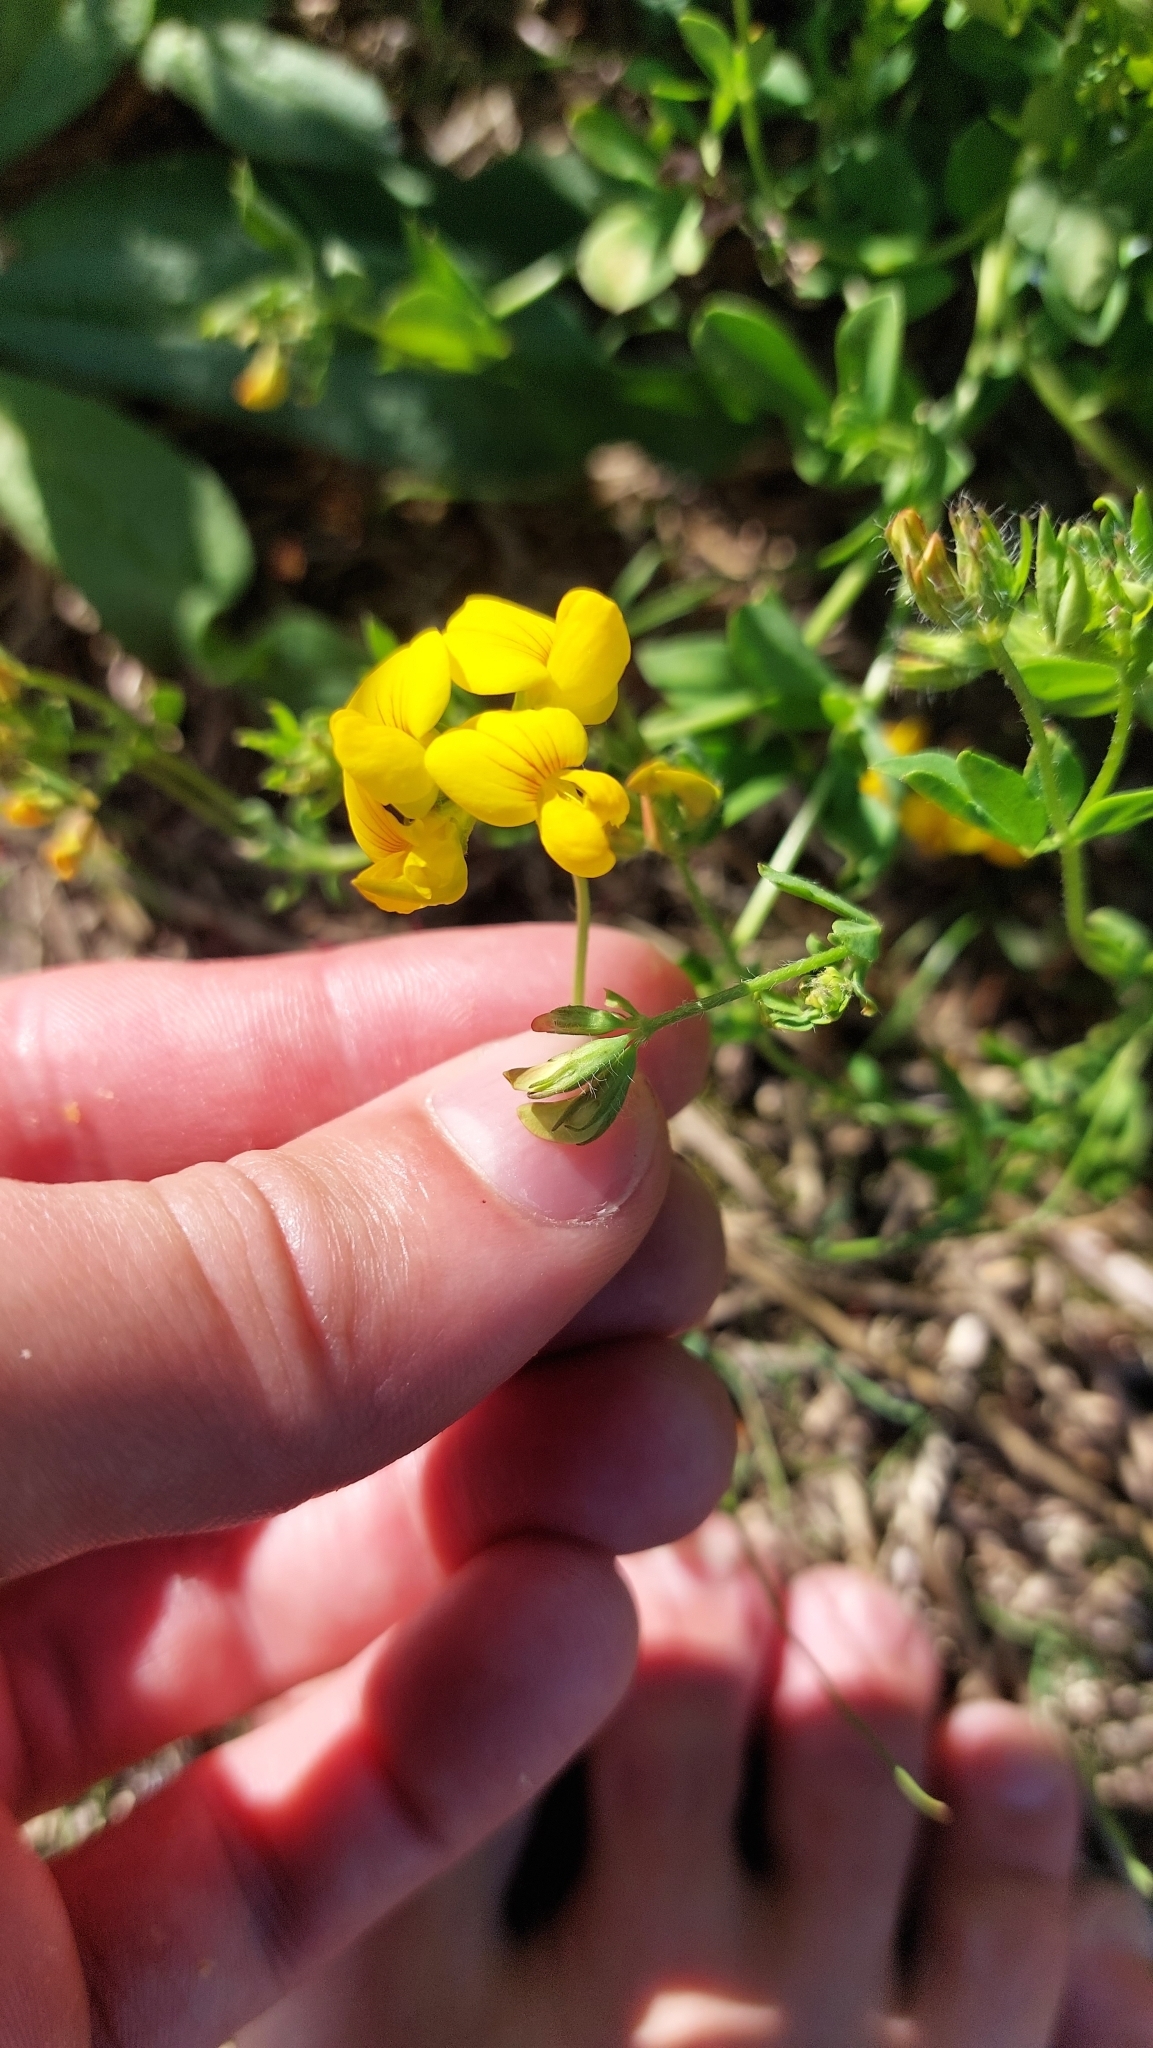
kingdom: Plantae
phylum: Tracheophyta
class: Magnoliopsida
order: Fabales
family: Fabaceae
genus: Lotus
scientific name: Lotus corniculatus
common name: Common bird's-foot-trefoil
